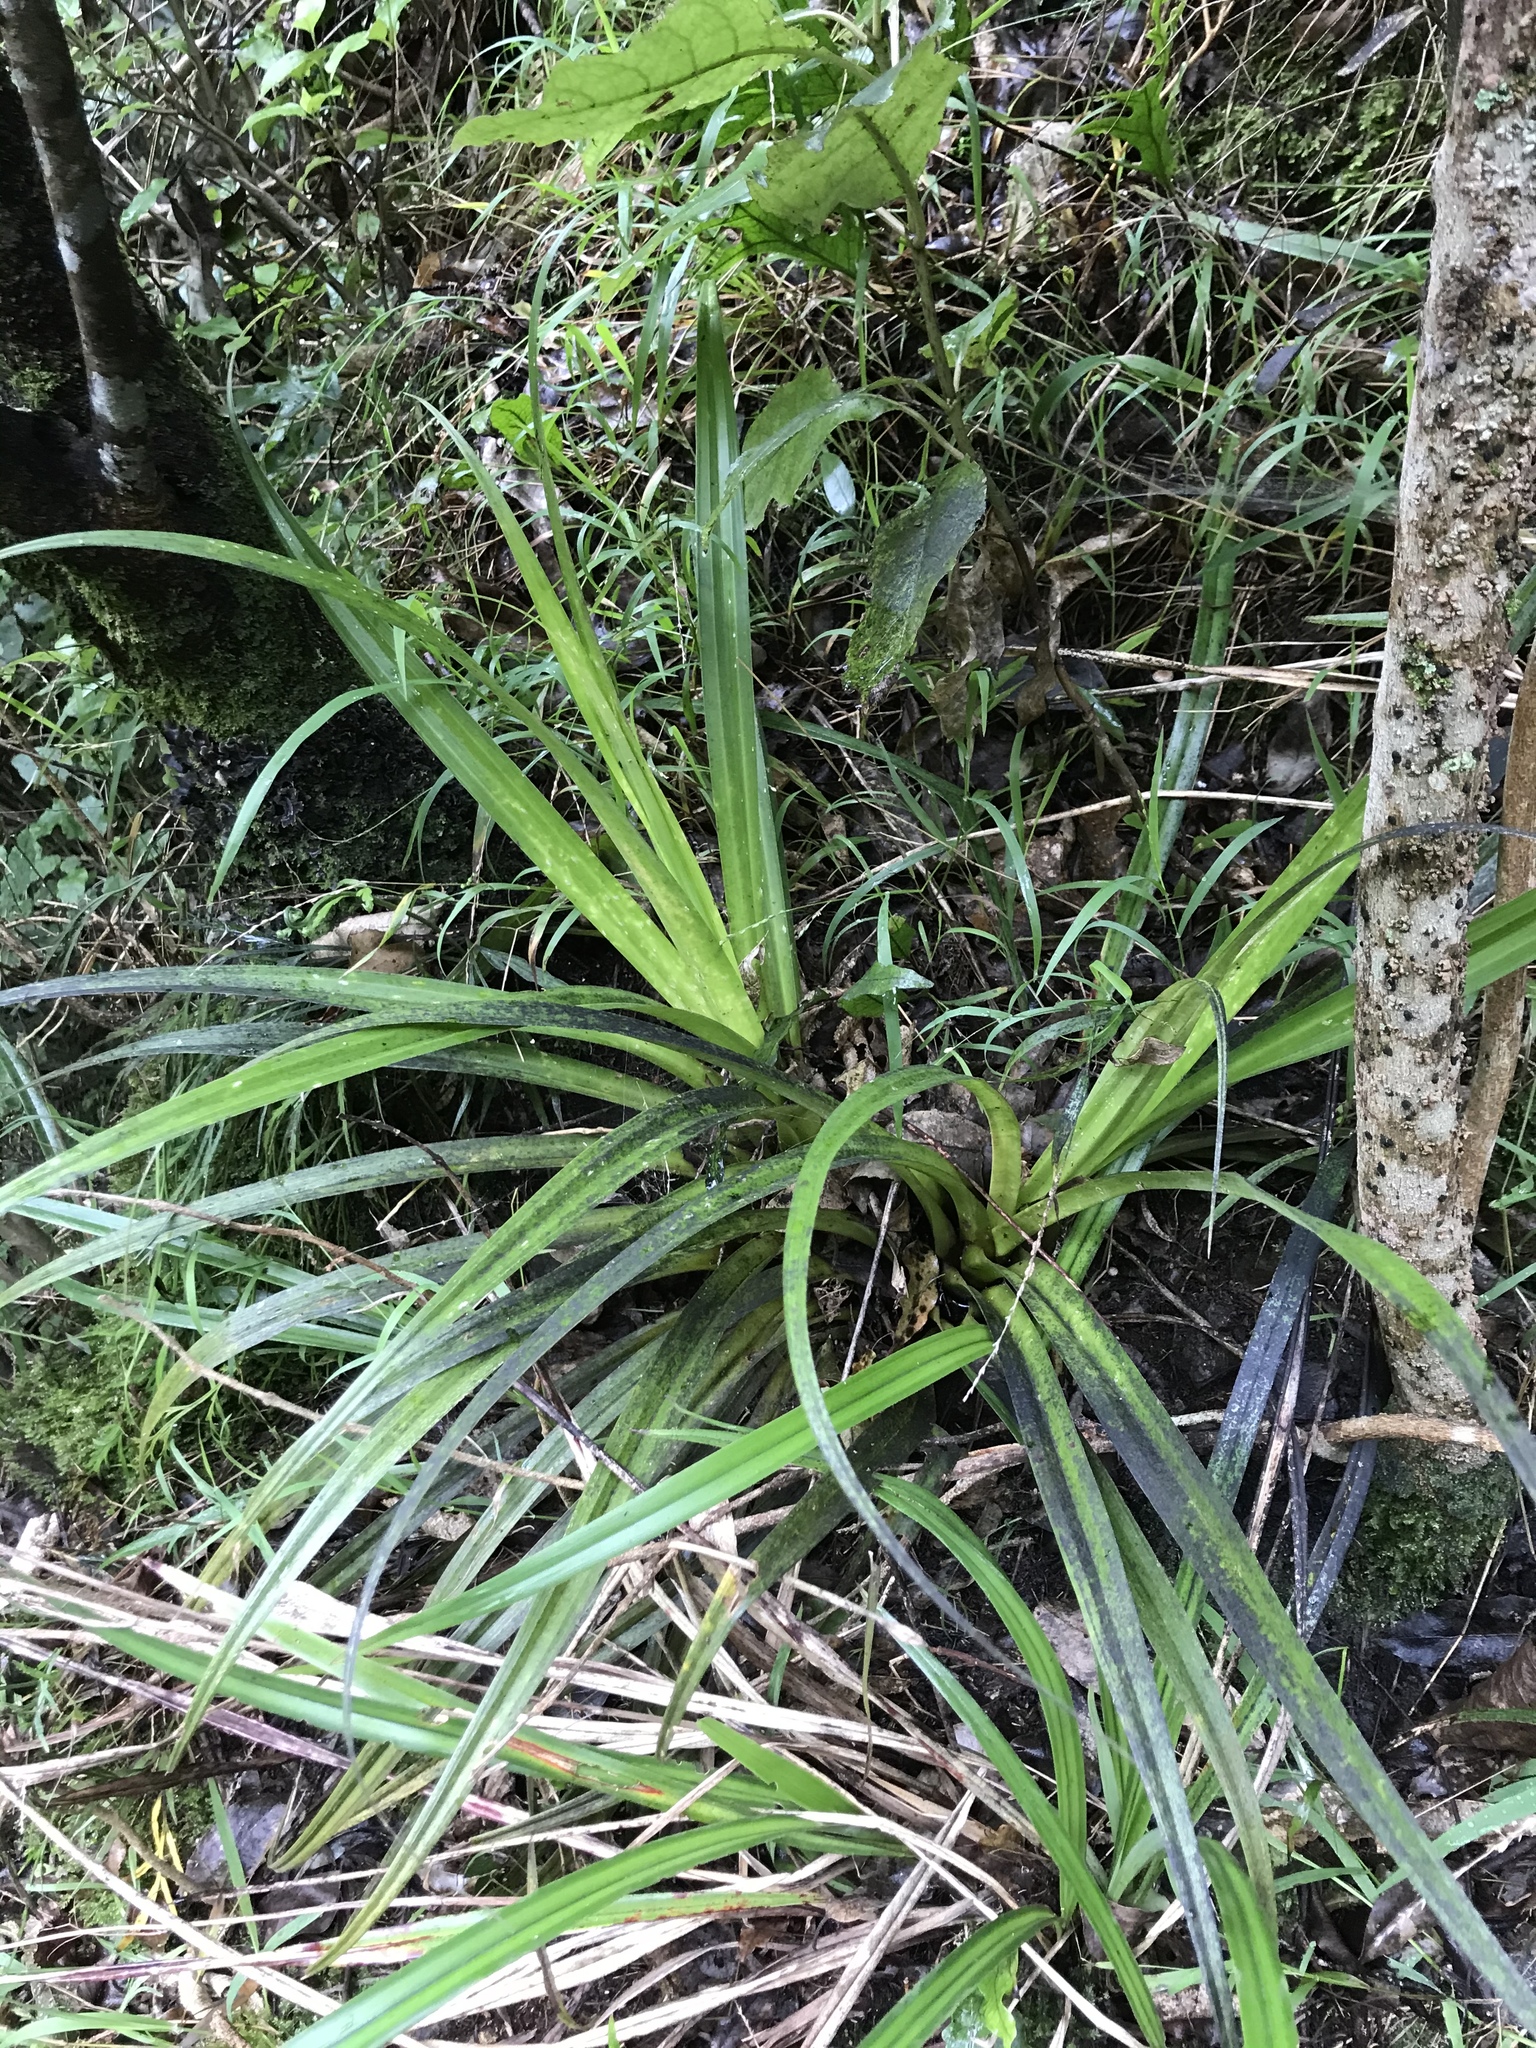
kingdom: Plantae
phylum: Tracheophyta
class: Liliopsida
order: Asparagales
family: Asteliaceae
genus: Astelia
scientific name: Astelia fragrans
